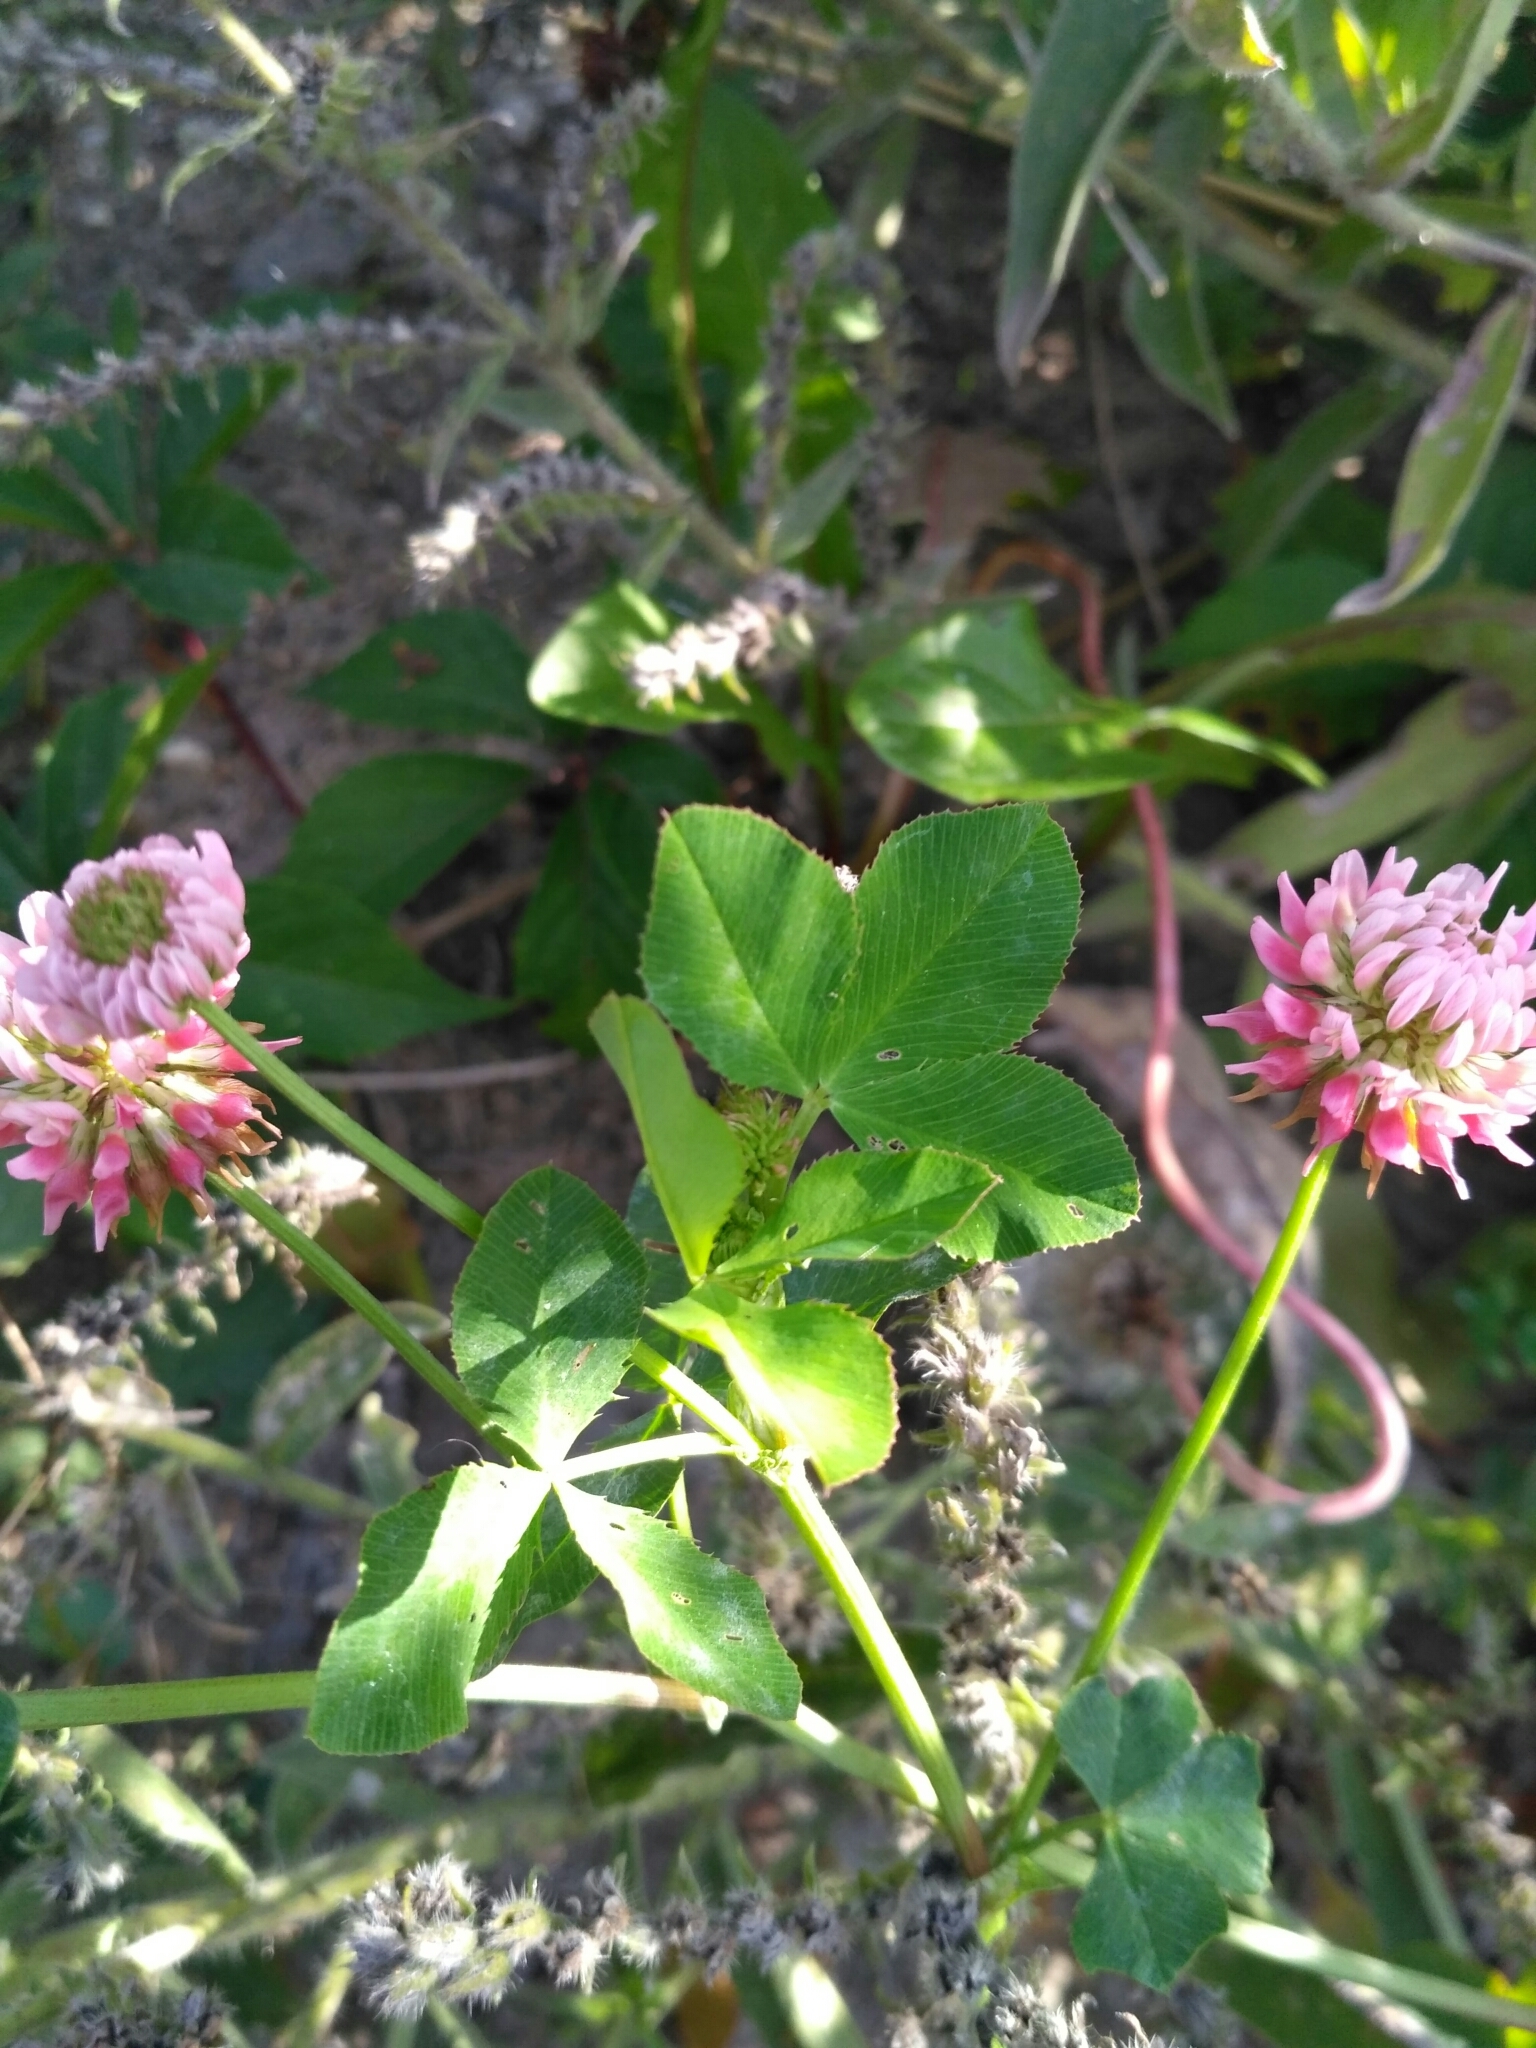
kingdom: Plantae
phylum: Tracheophyta
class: Magnoliopsida
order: Fabales
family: Fabaceae
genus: Trifolium
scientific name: Trifolium hybridum
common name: Alsike clover
